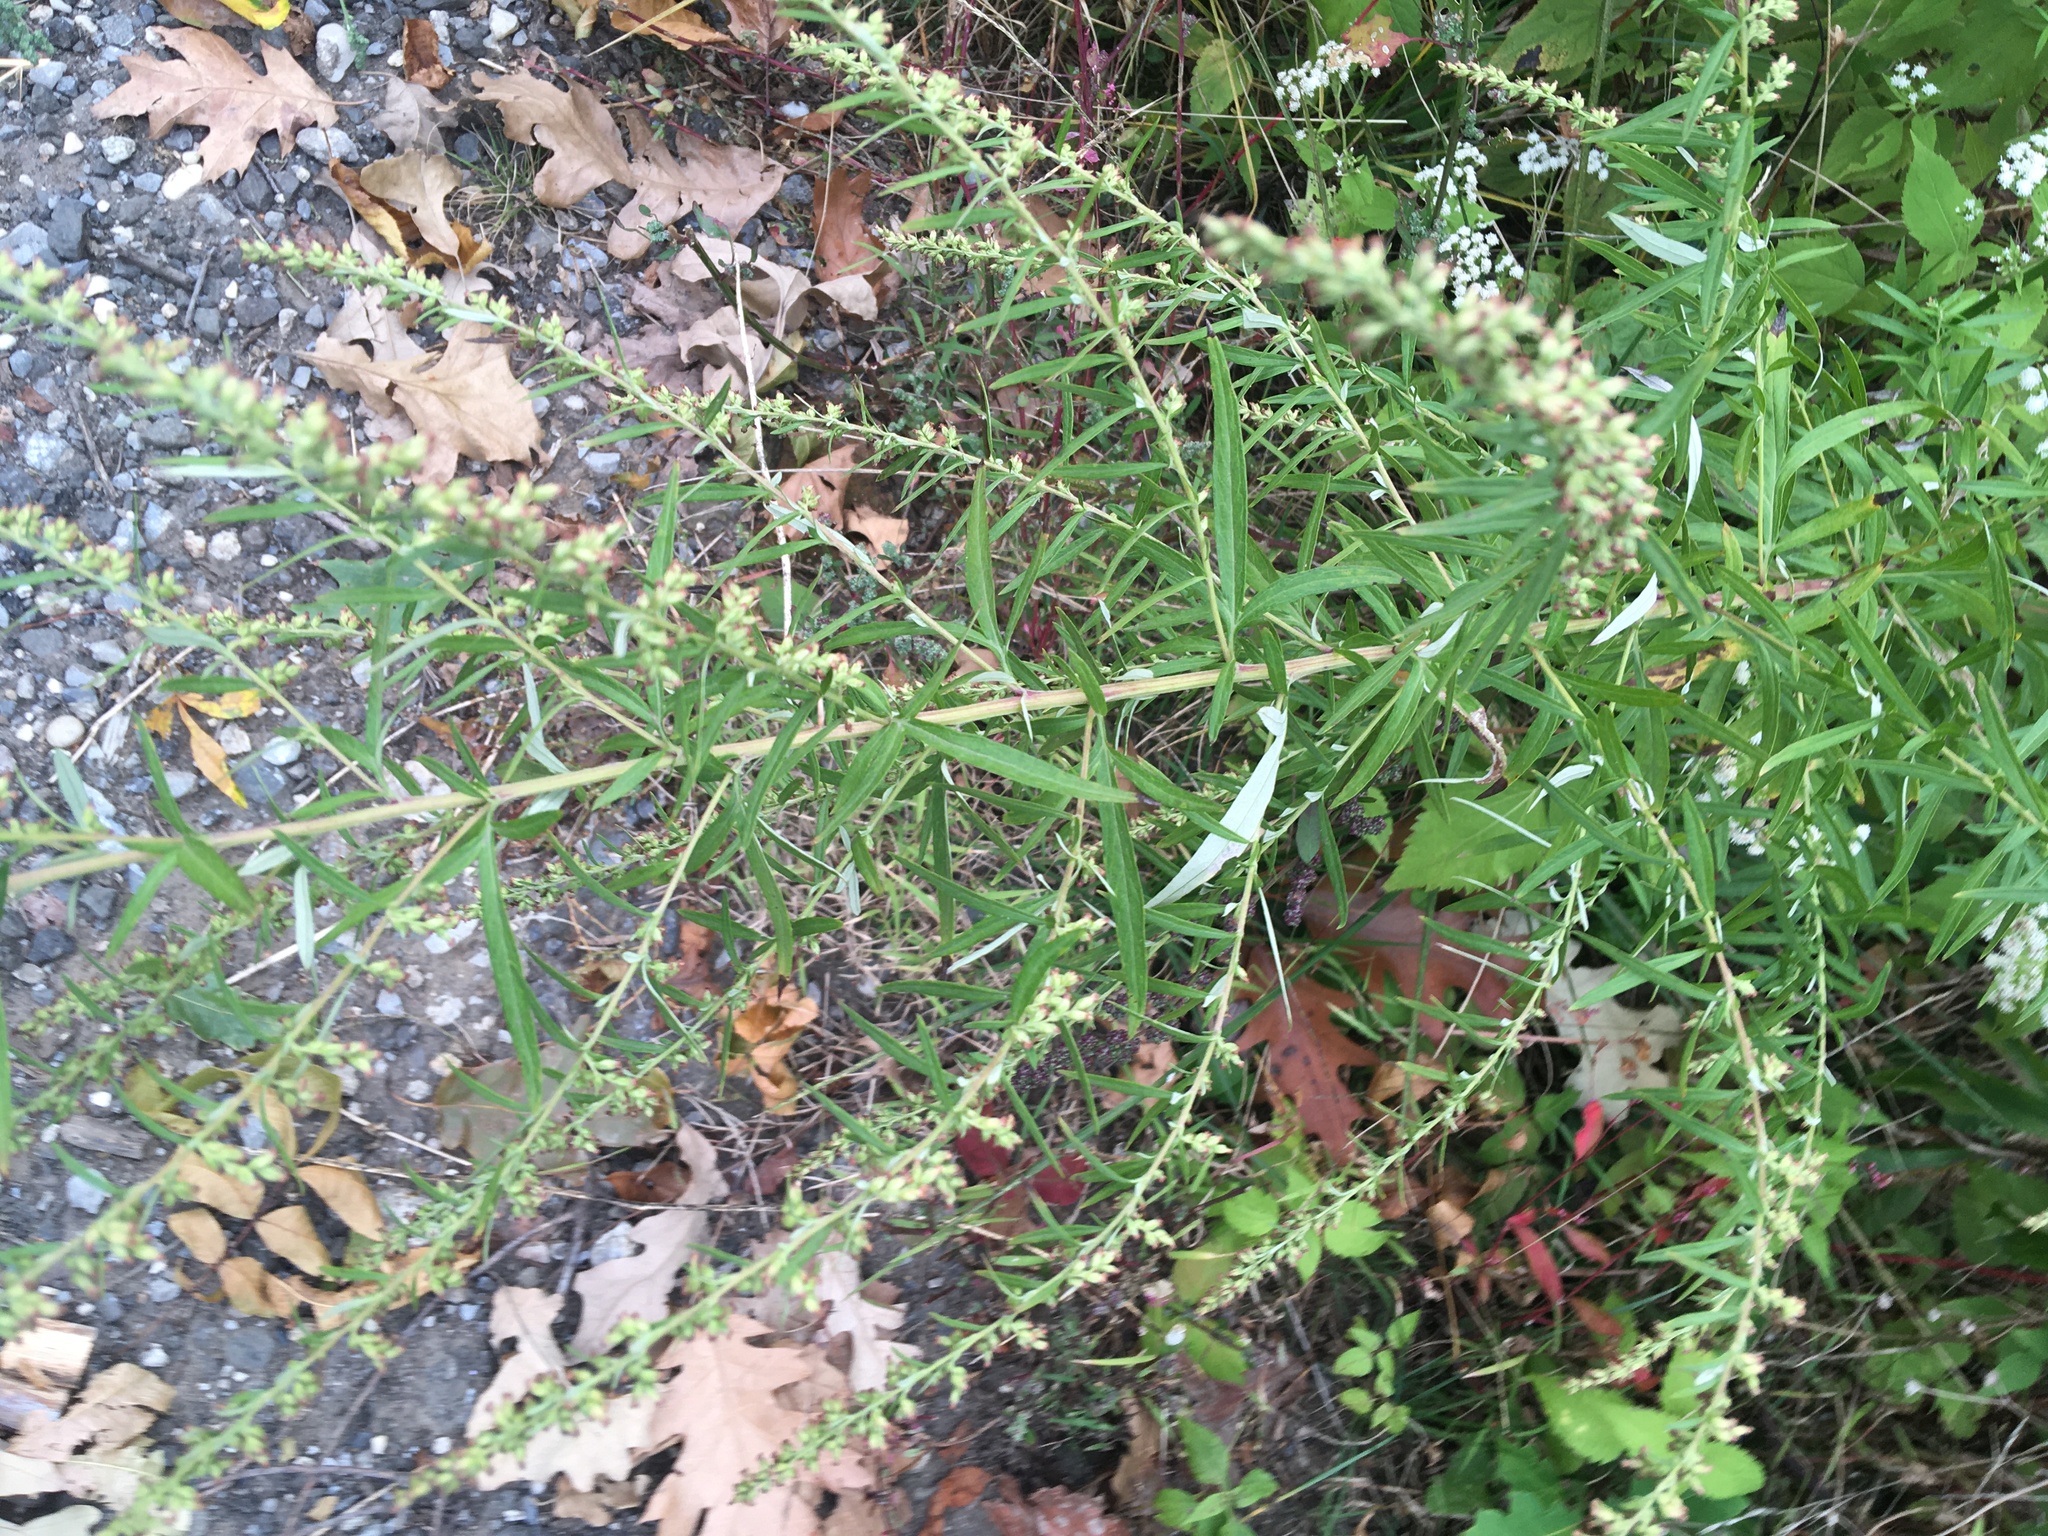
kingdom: Plantae
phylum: Tracheophyta
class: Magnoliopsida
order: Asterales
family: Asteraceae
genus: Artemisia
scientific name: Artemisia vulgaris
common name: Mugwort
